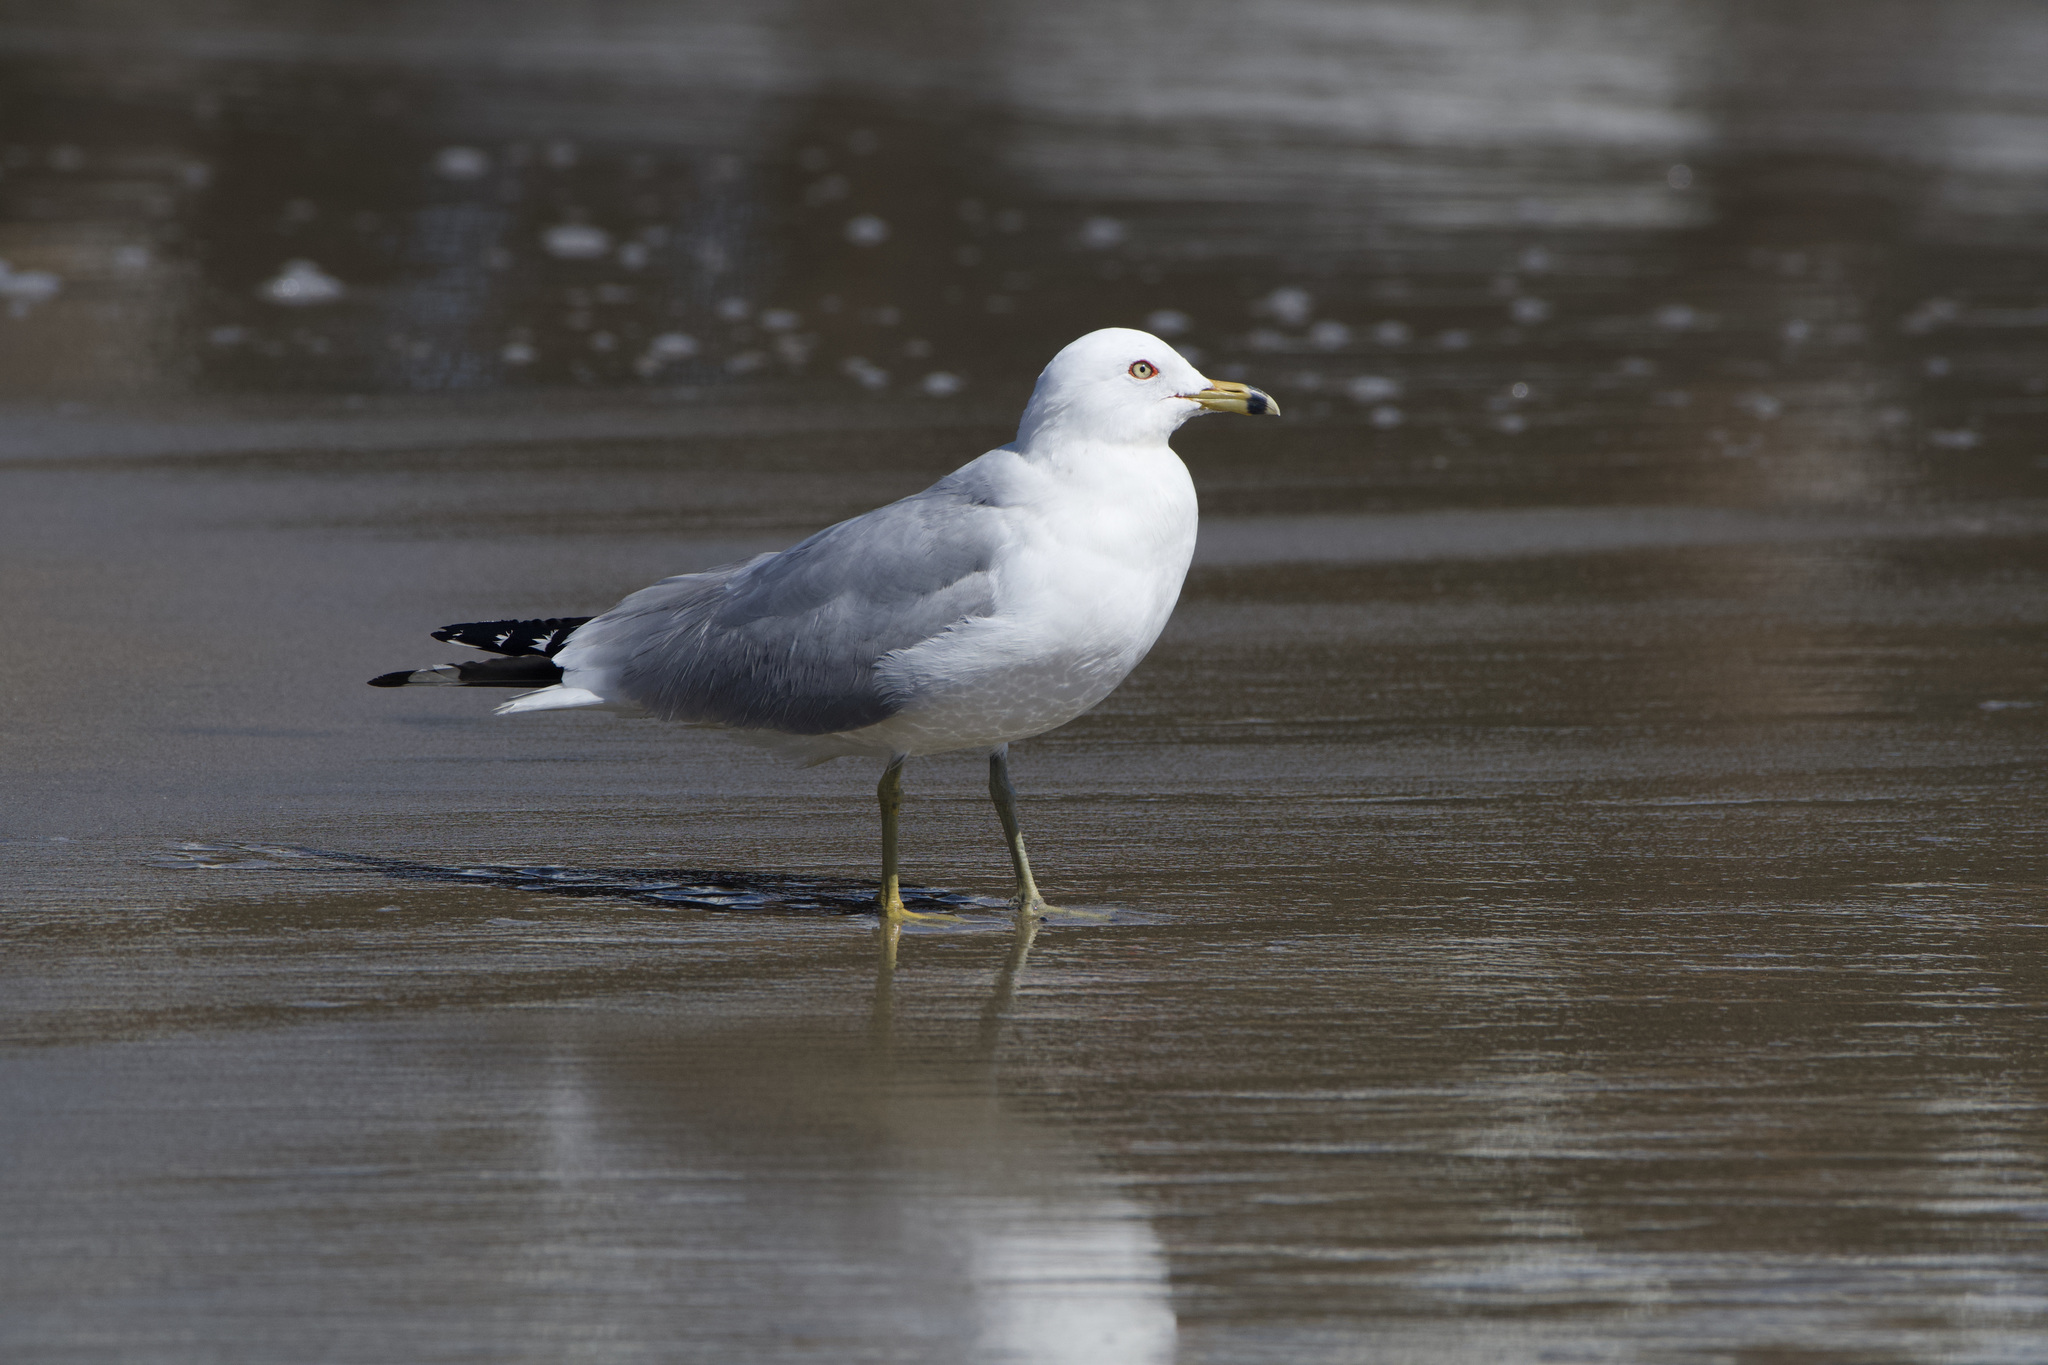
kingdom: Animalia
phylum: Chordata
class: Aves
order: Charadriiformes
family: Laridae
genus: Larus
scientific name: Larus delawarensis
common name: Ring-billed gull
